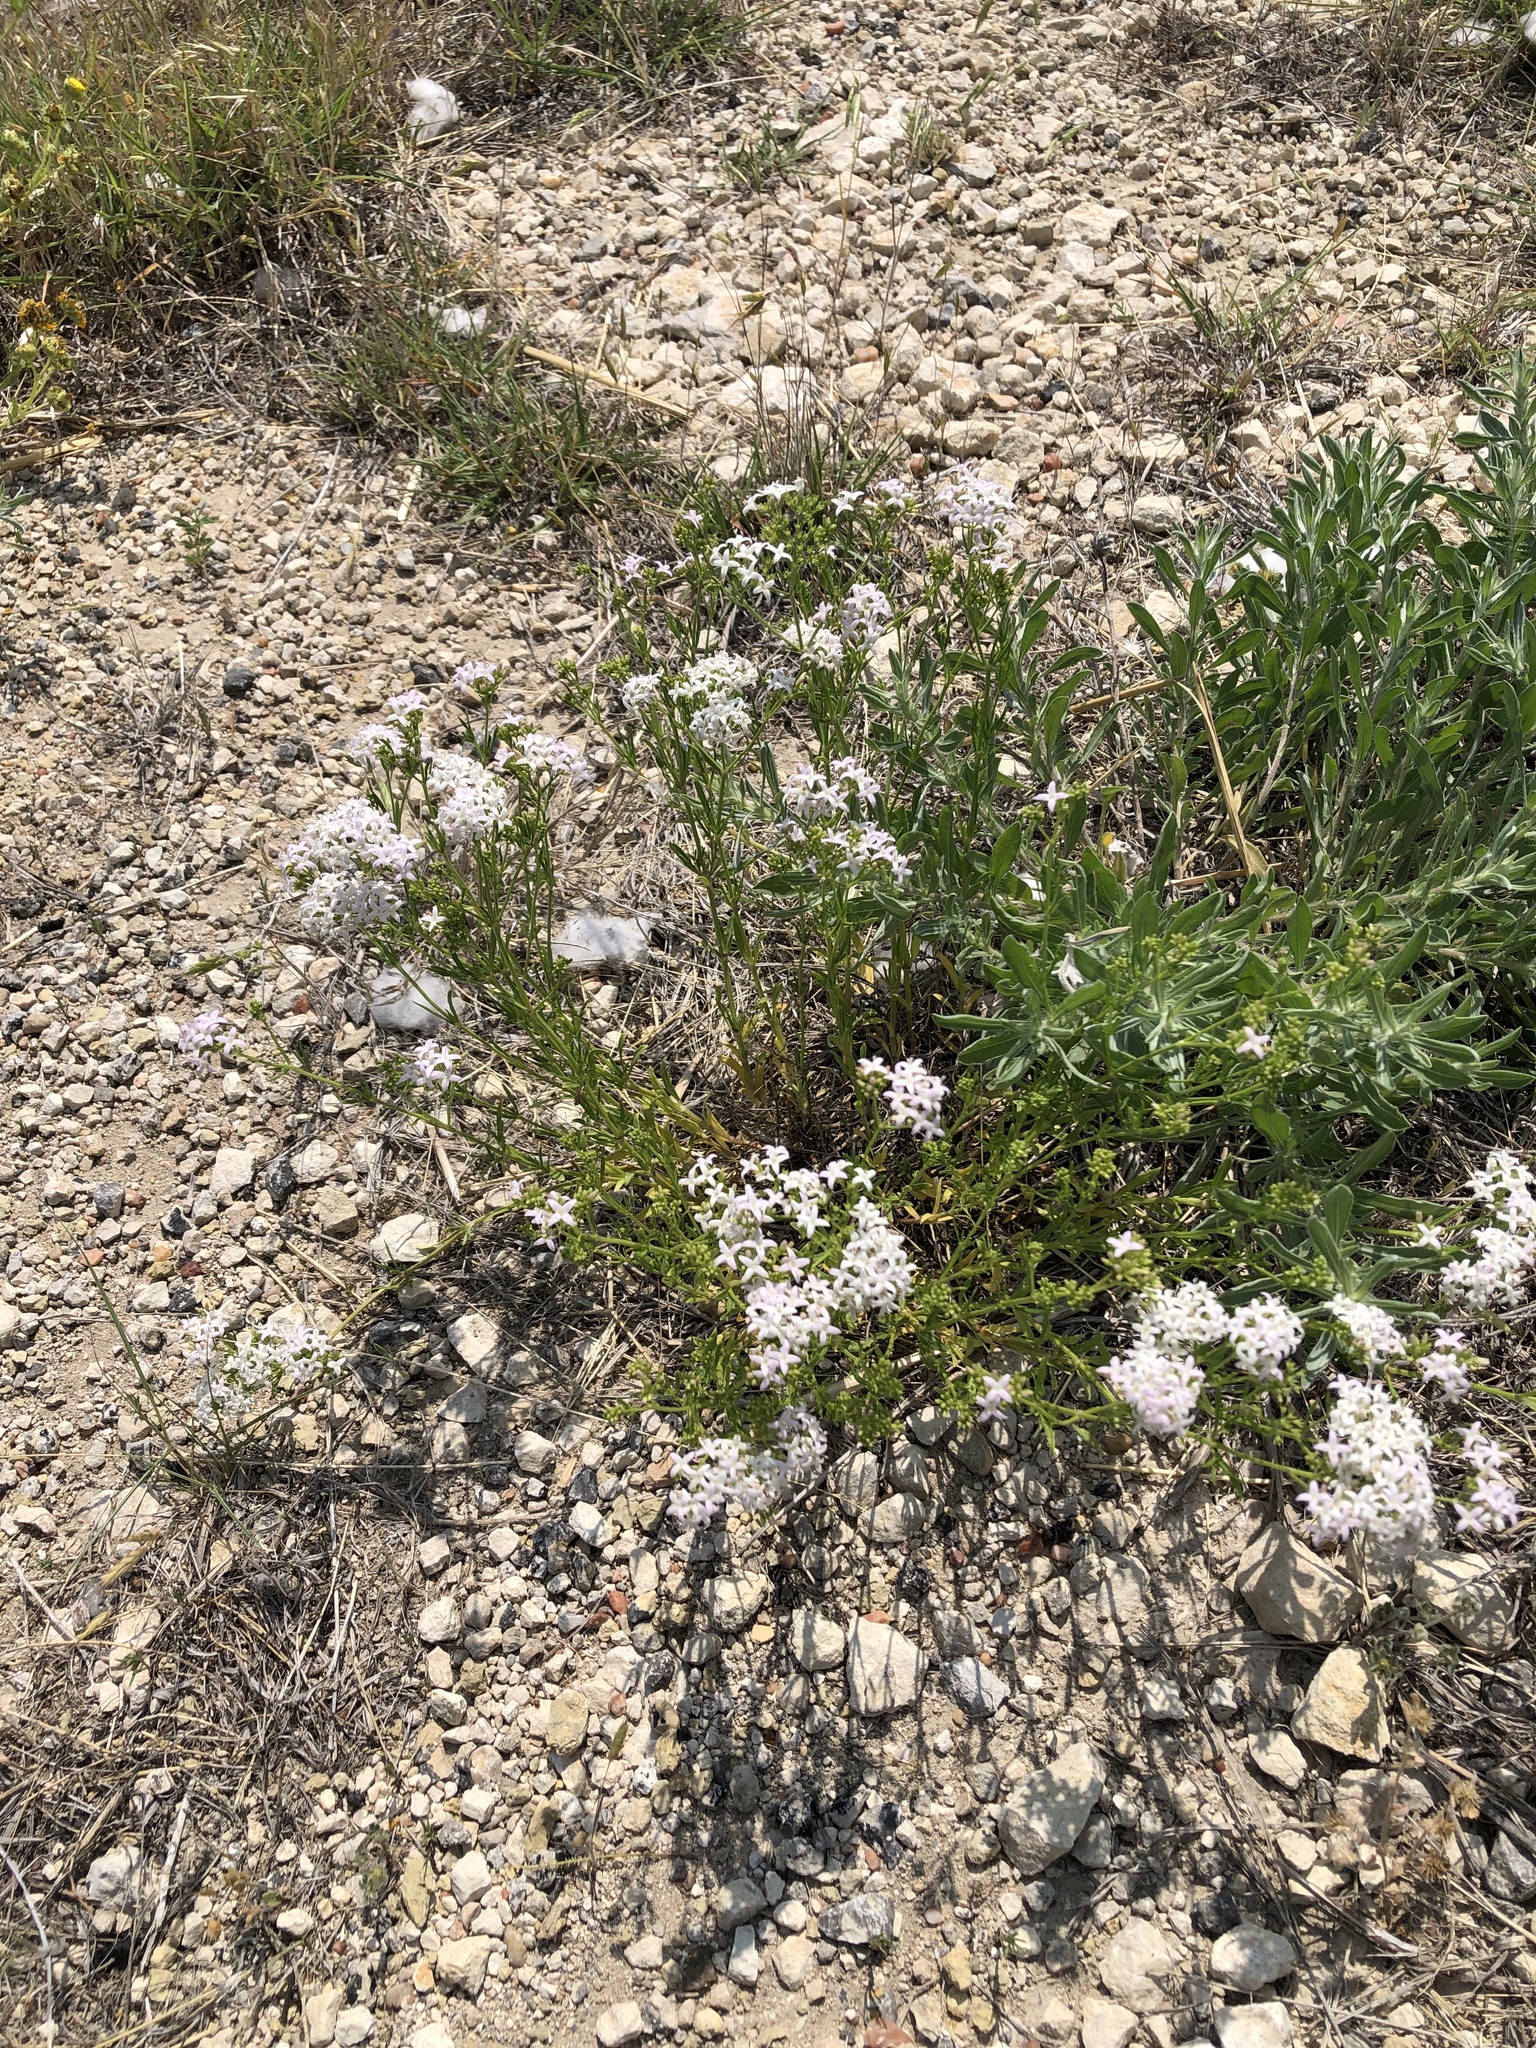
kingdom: Plantae
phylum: Tracheophyta
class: Magnoliopsida
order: Gentianales
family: Rubiaceae
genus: Stenaria
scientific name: Stenaria nigricans
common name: Diamondflowers
